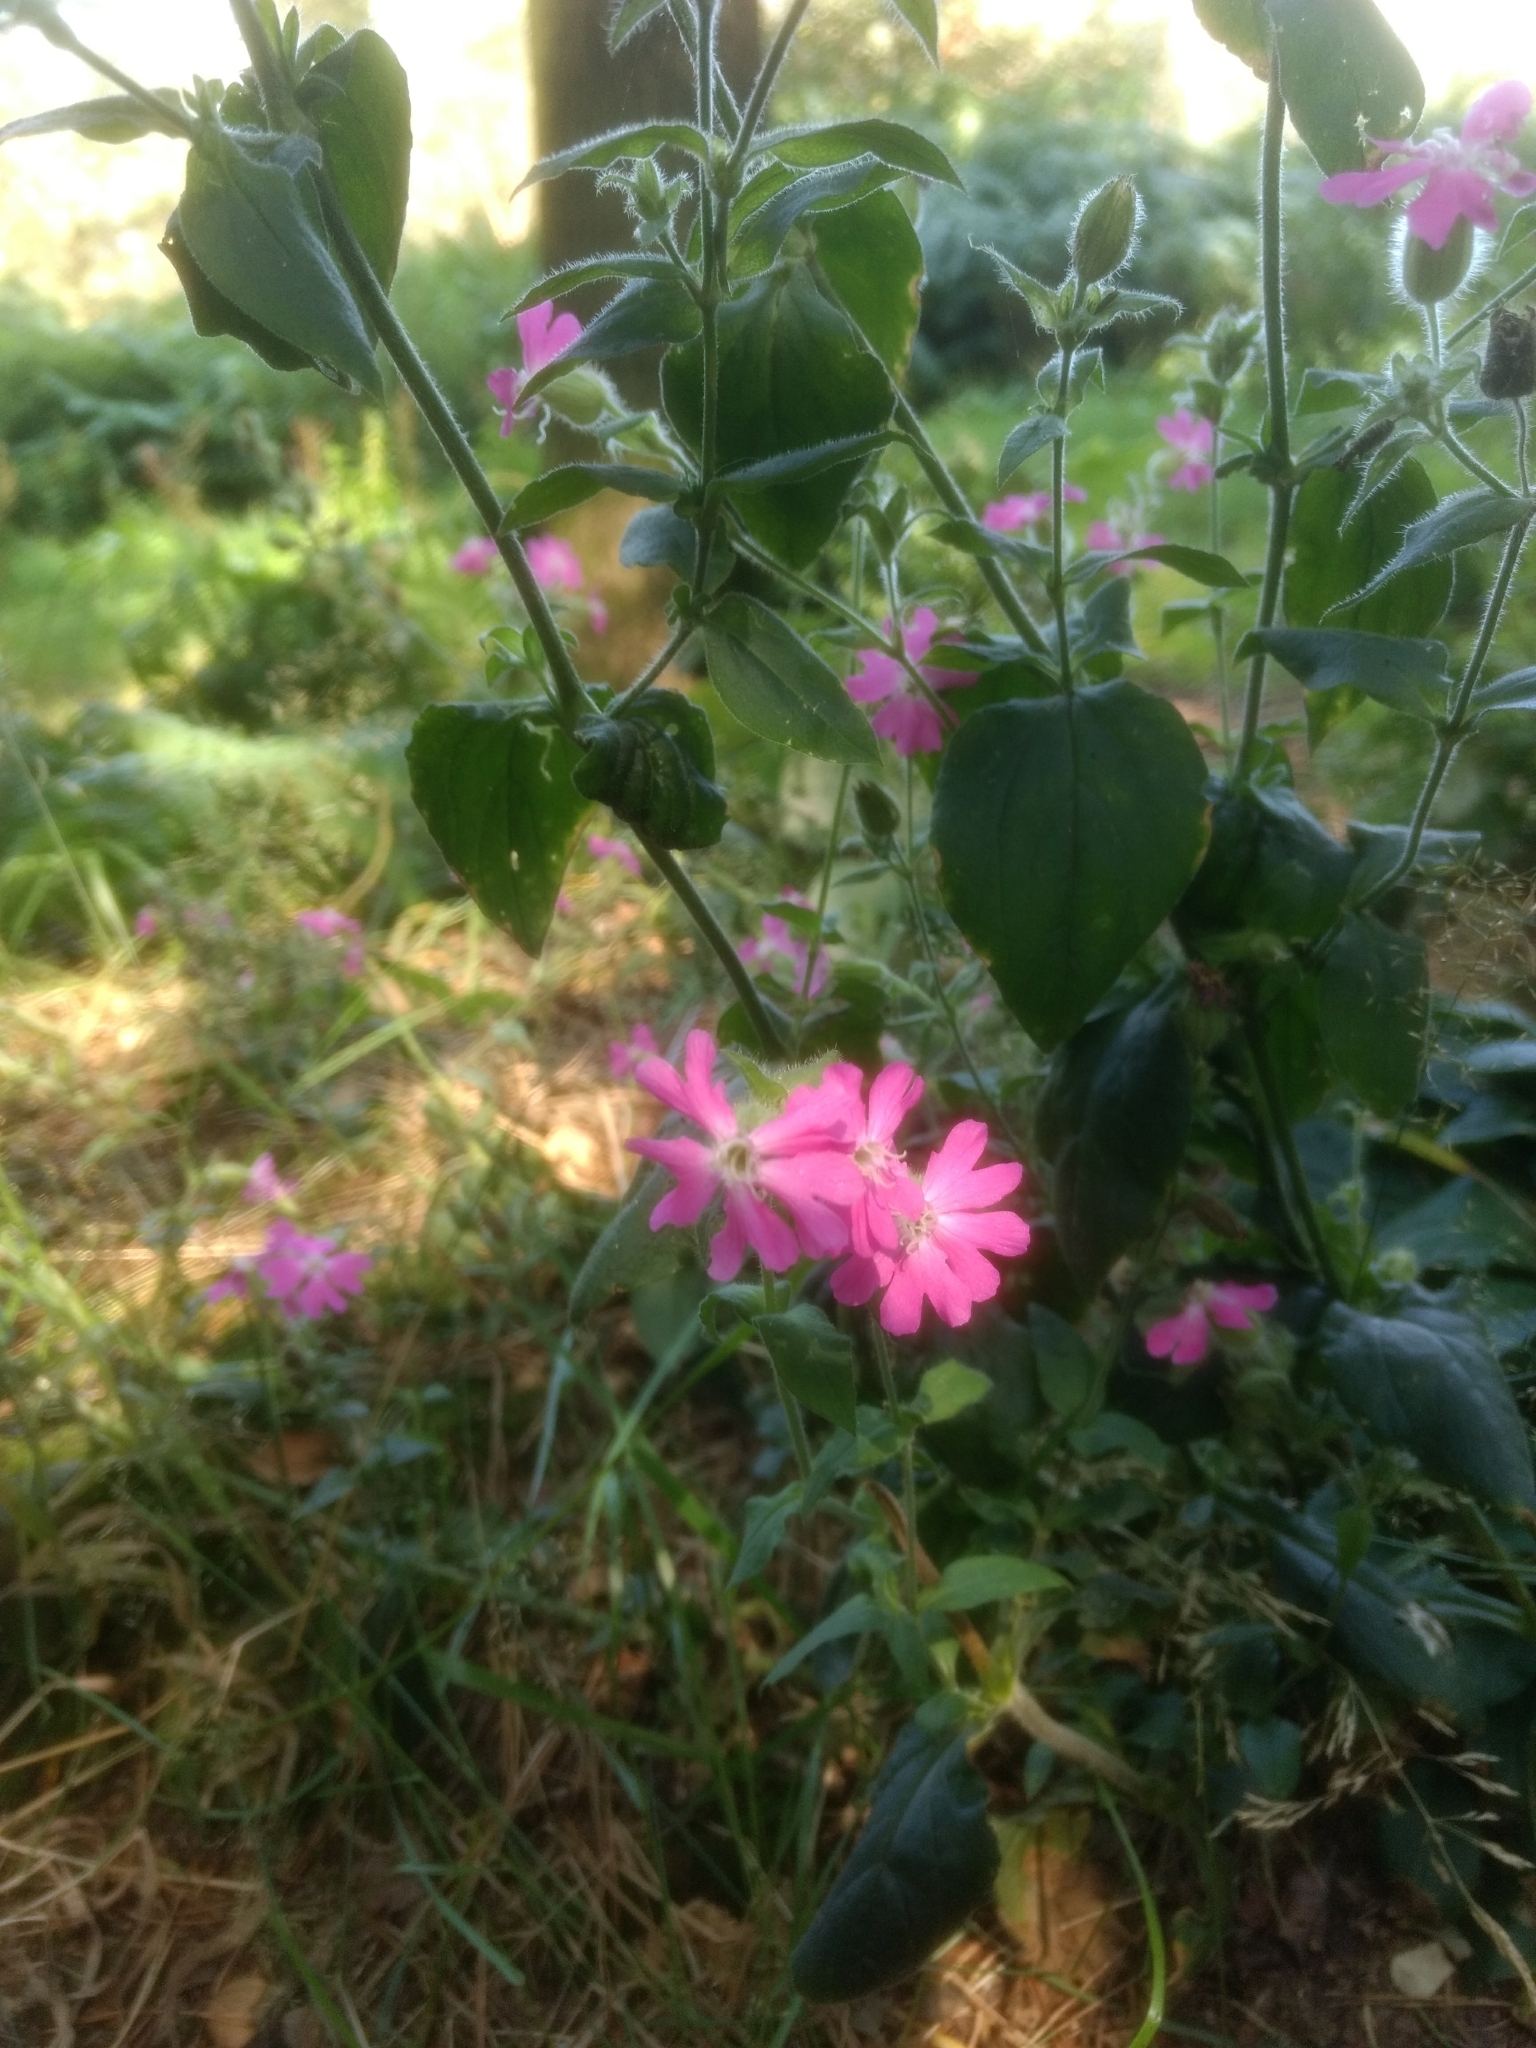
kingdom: Plantae
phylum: Tracheophyta
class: Magnoliopsida
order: Caryophyllales
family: Caryophyllaceae
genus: Silene
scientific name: Silene dioica
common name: Red campion
